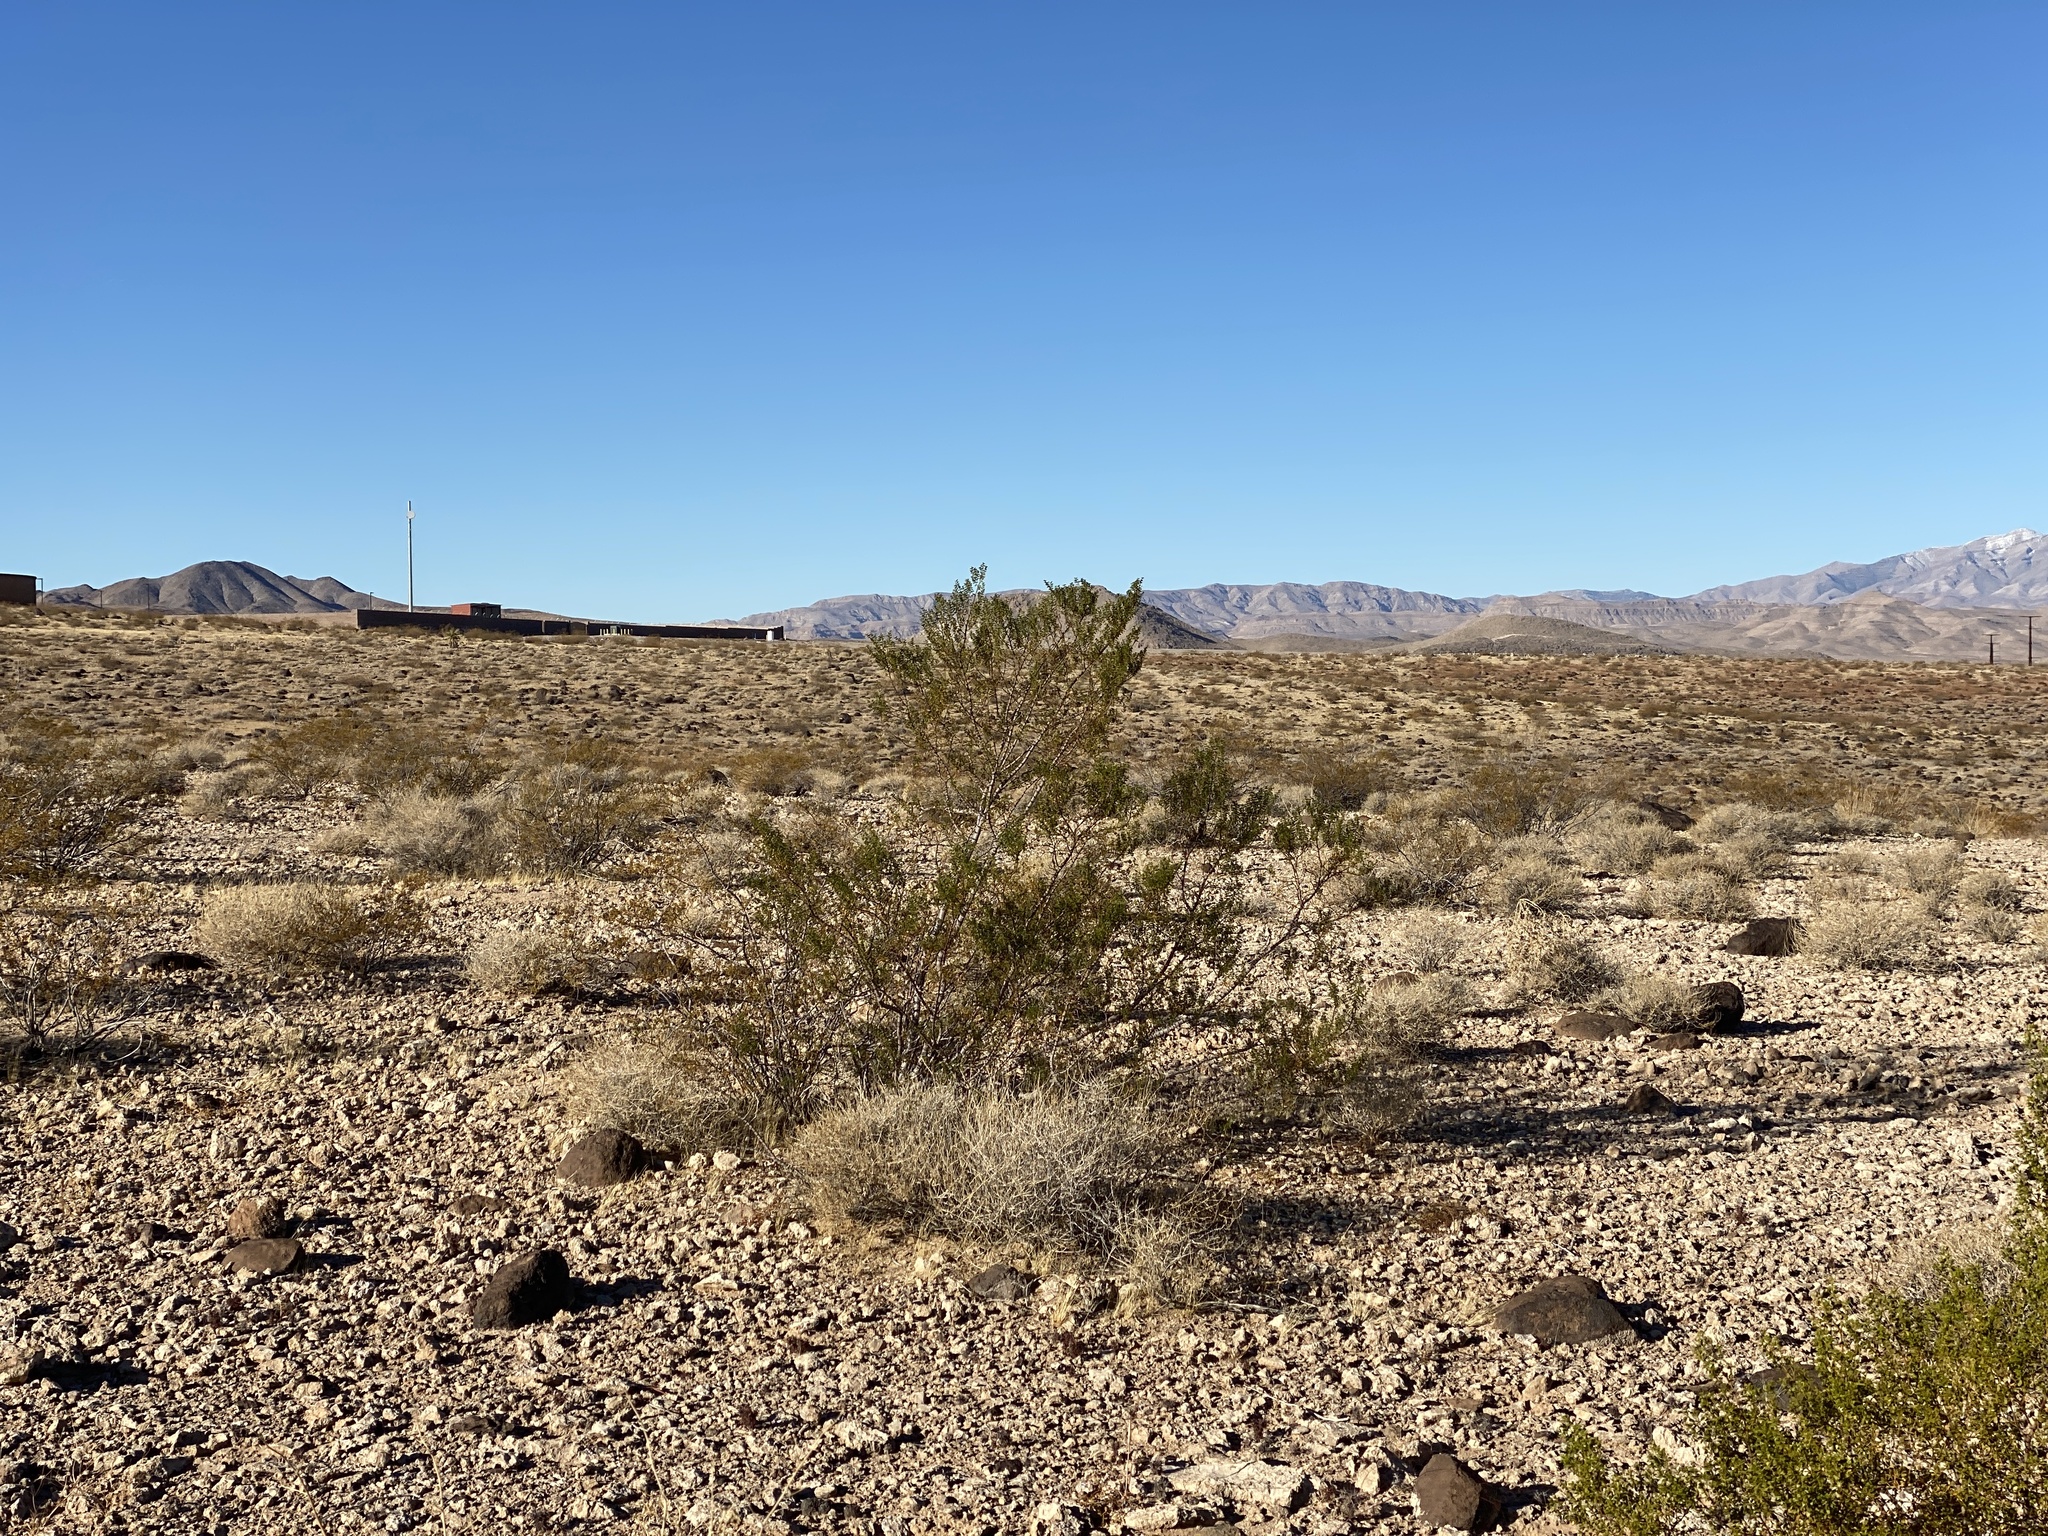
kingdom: Plantae
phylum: Tracheophyta
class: Magnoliopsida
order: Zygophyllales
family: Zygophyllaceae
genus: Larrea
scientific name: Larrea tridentata
